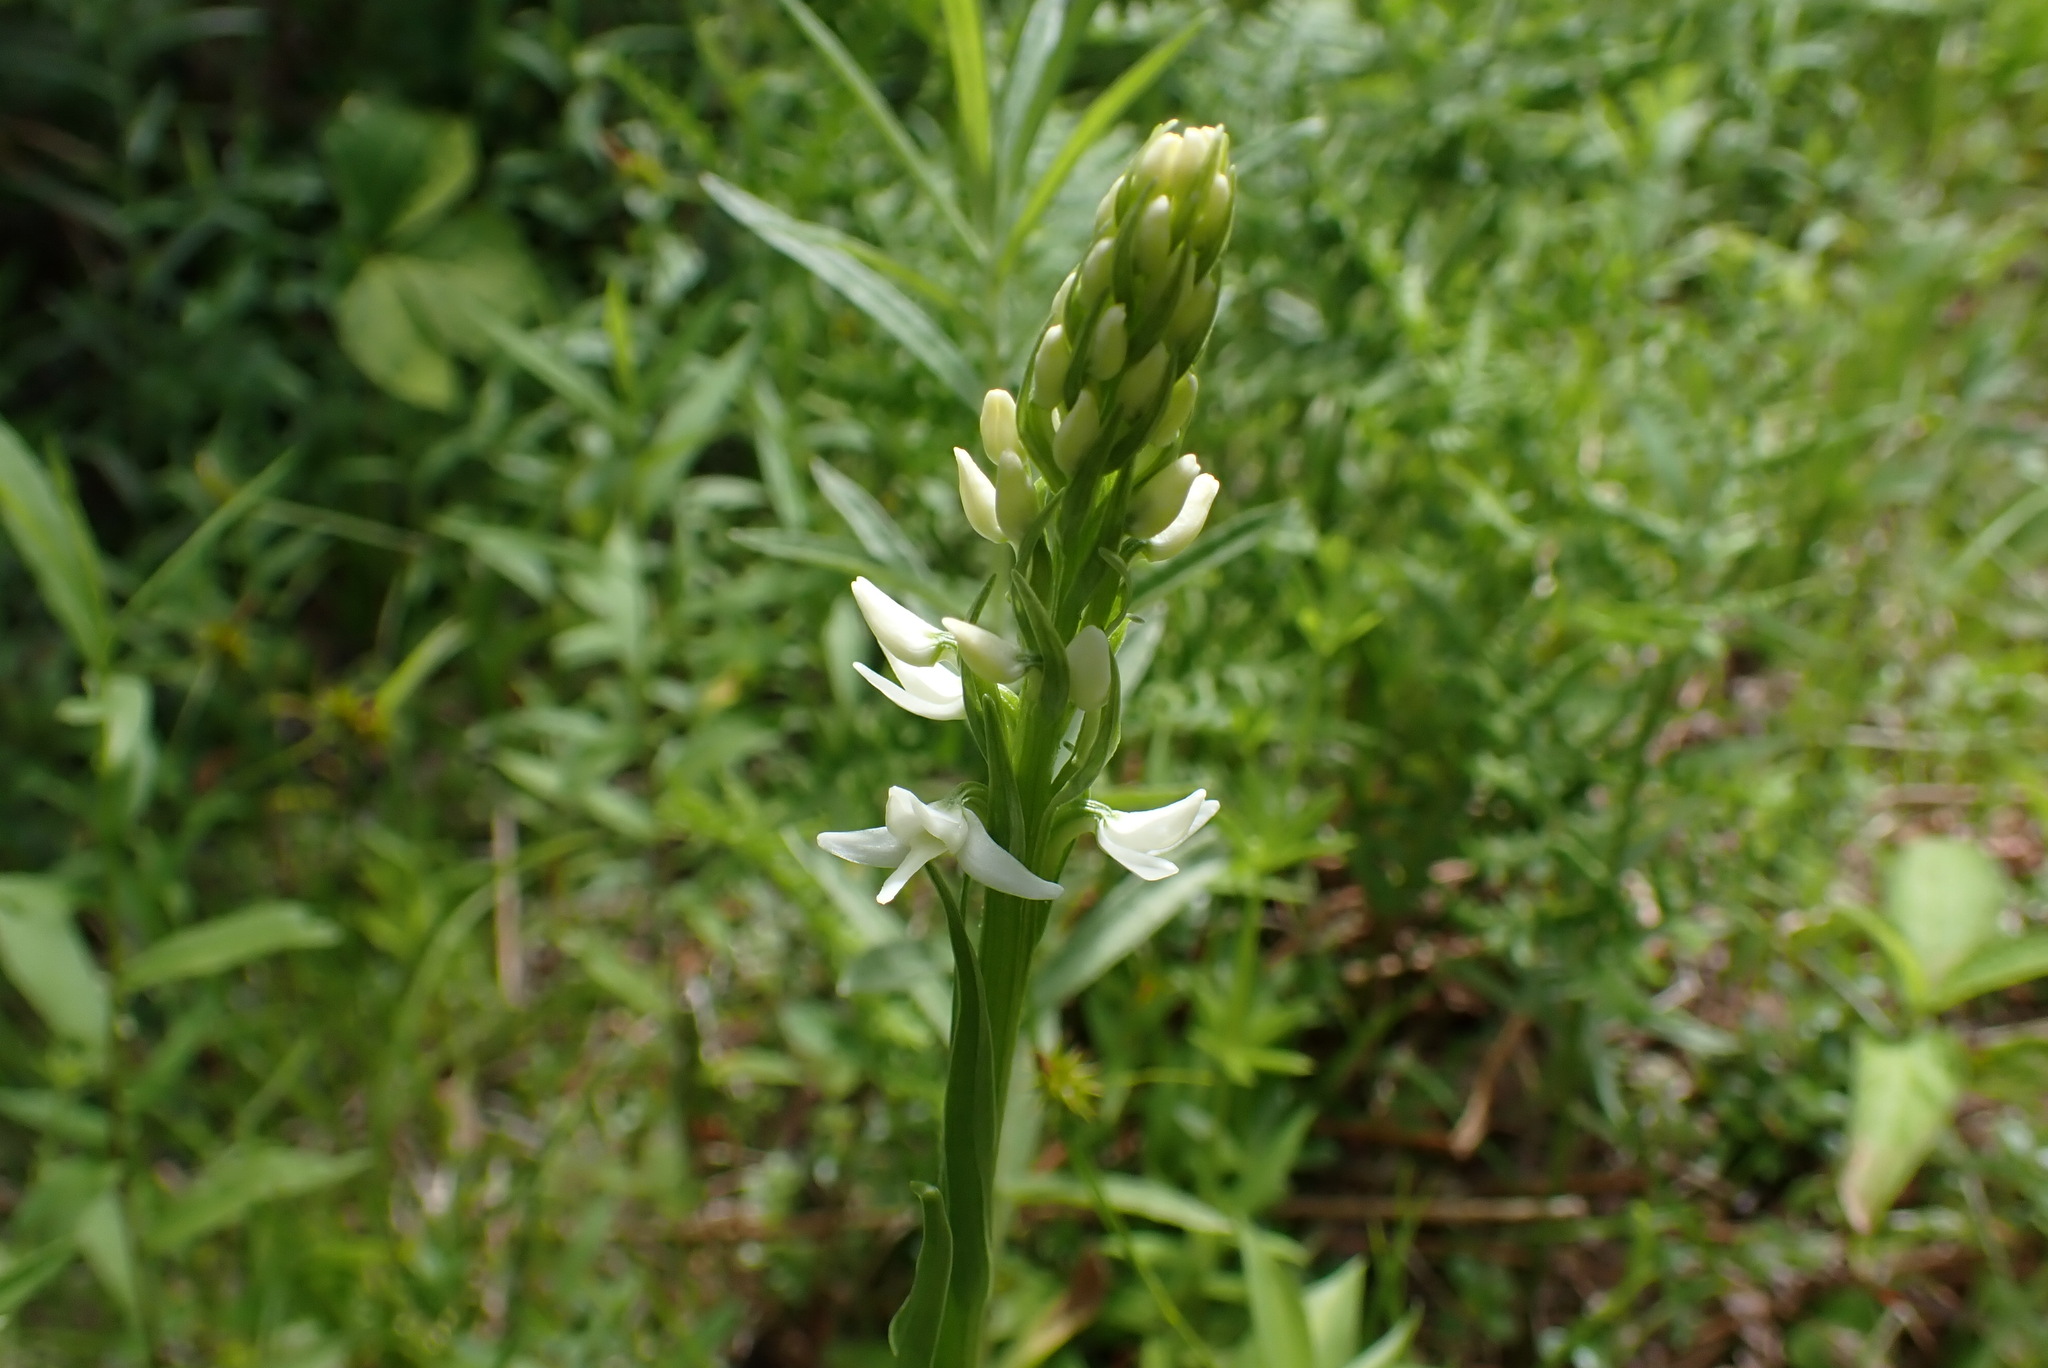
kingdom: Plantae
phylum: Tracheophyta
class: Liliopsida
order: Asparagales
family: Orchidaceae
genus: Platanthera
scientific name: Platanthera dilatata
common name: Bog candles
